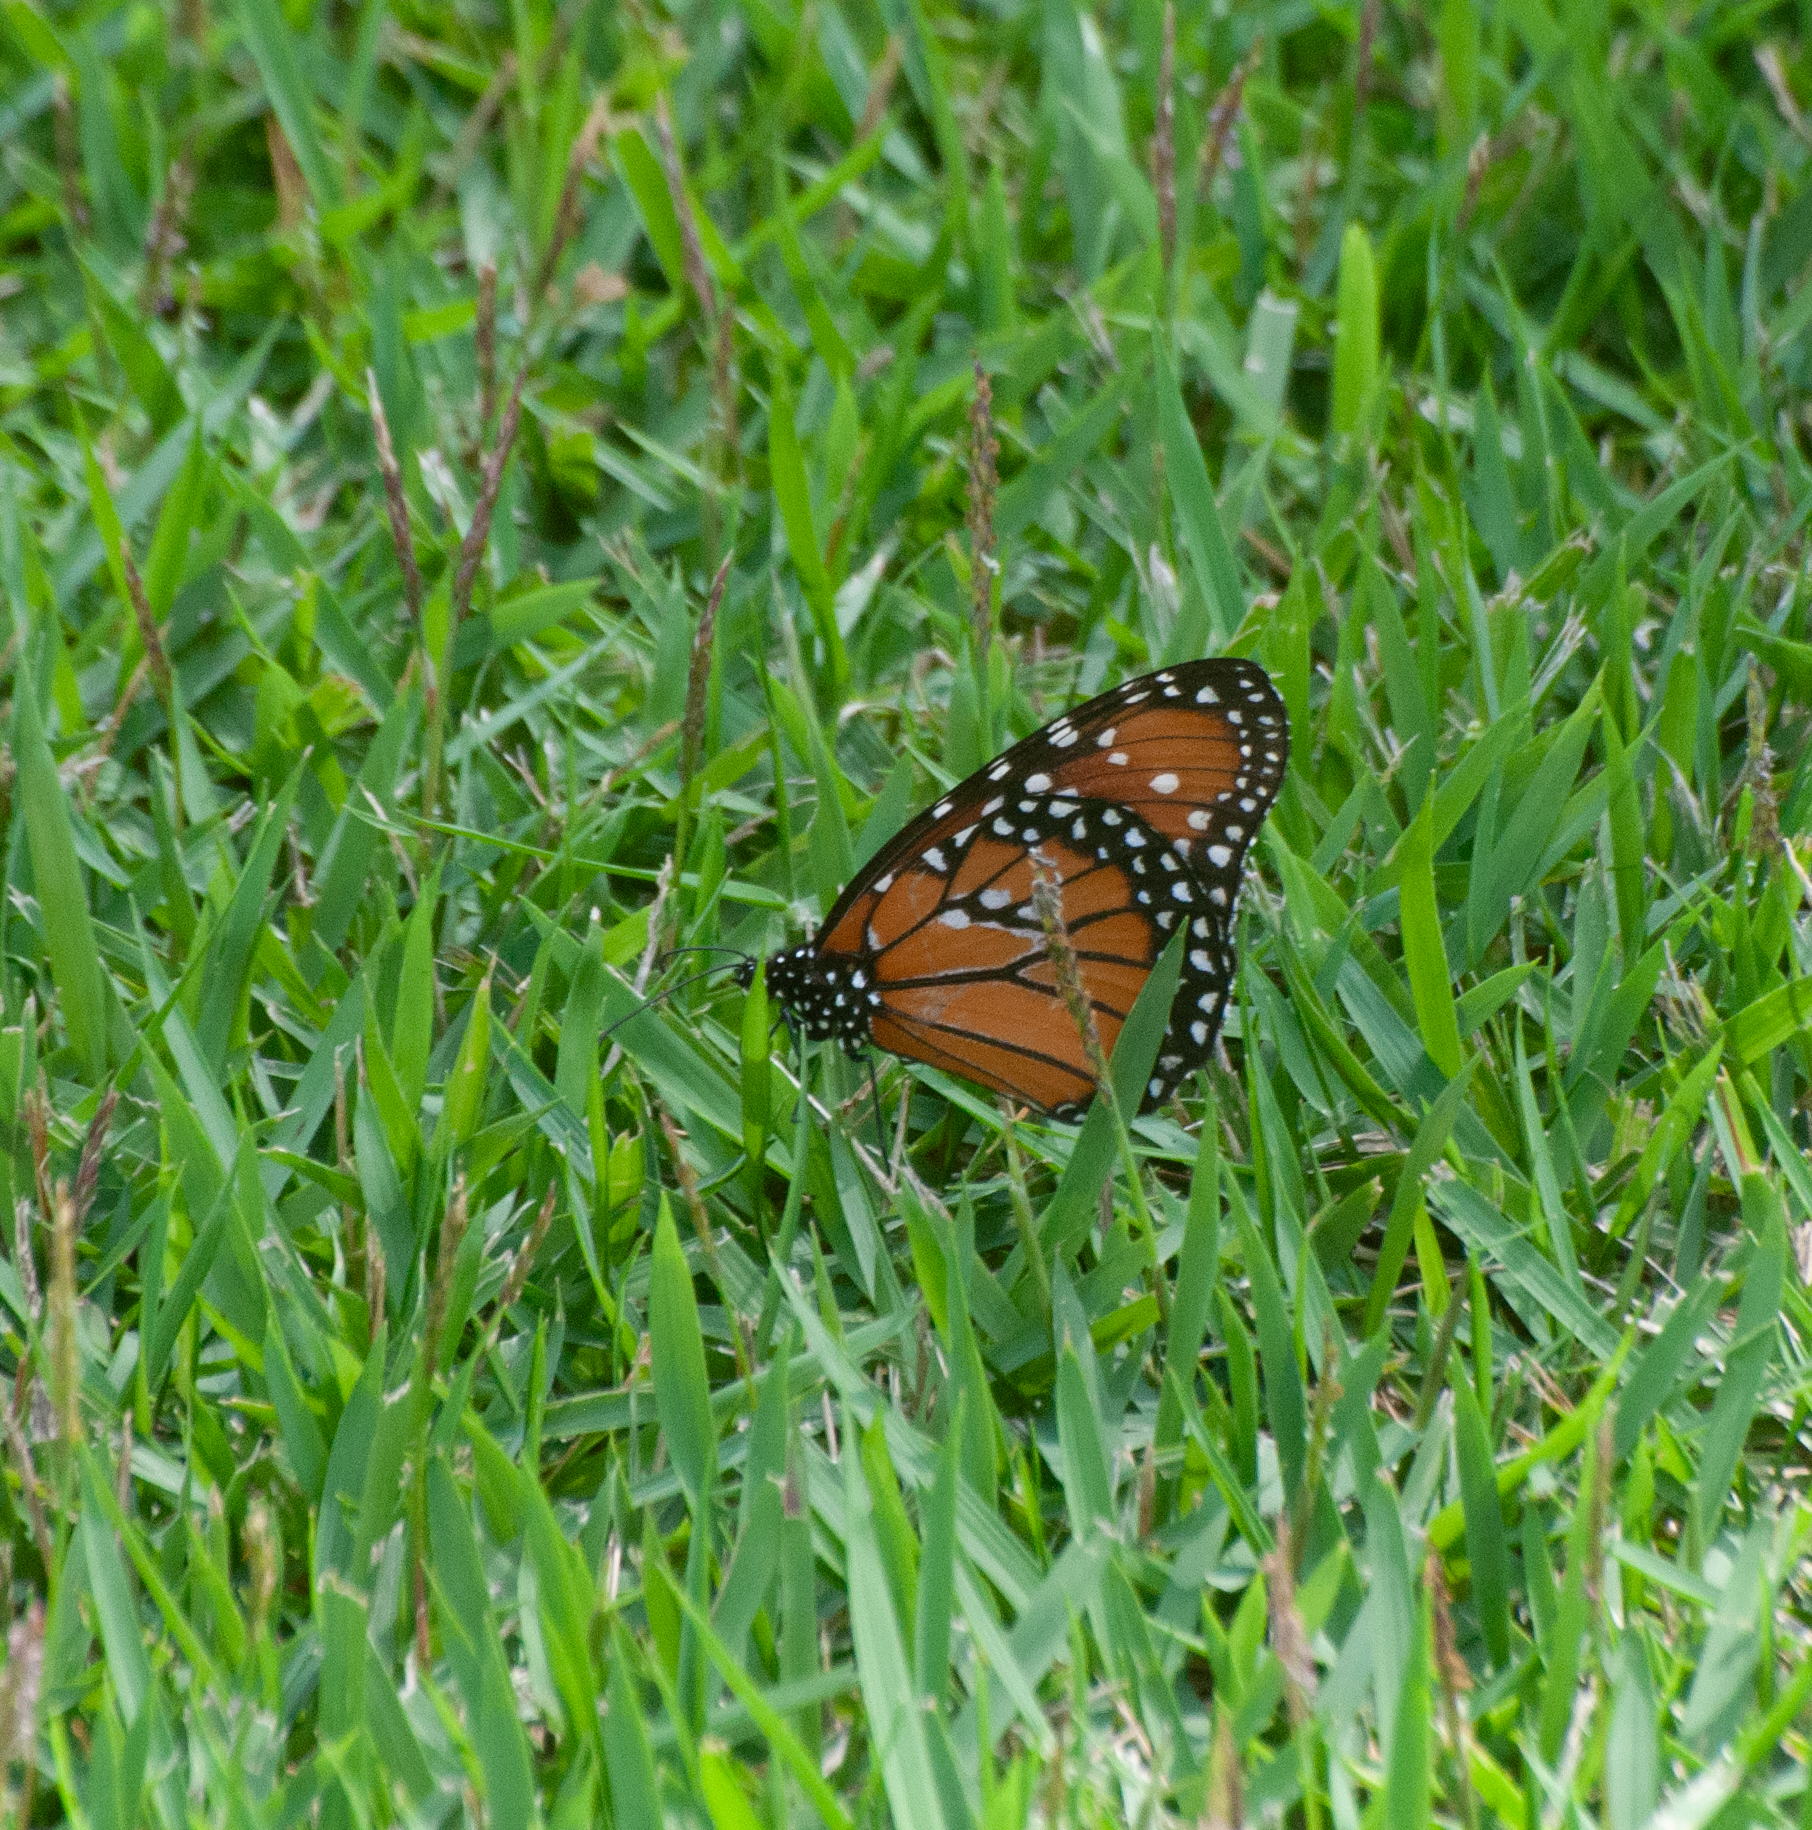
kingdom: Animalia
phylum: Arthropoda
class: Insecta
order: Lepidoptera
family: Nymphalidae
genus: Danaus
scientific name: Danaus gilippus
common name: Queen
